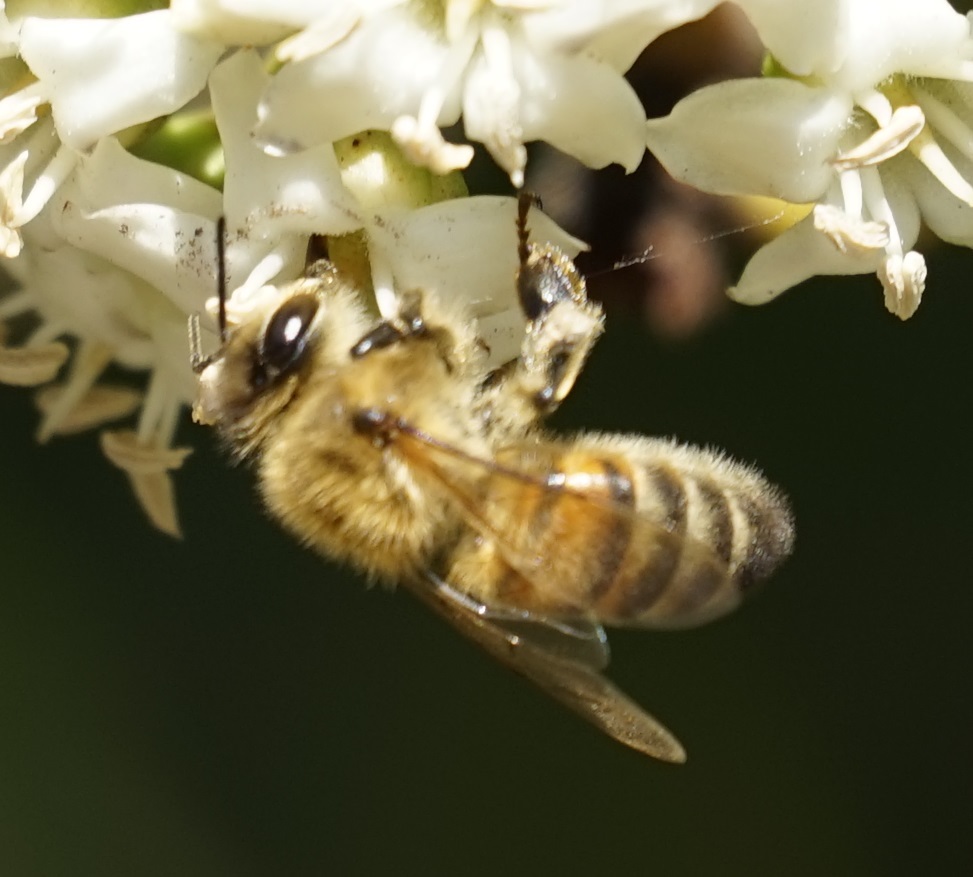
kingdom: Animalia
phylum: Arthropoda
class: Insecta
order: Hymenoptera
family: Apidae
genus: Apis
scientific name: Apis mellifera
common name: Honey bee
